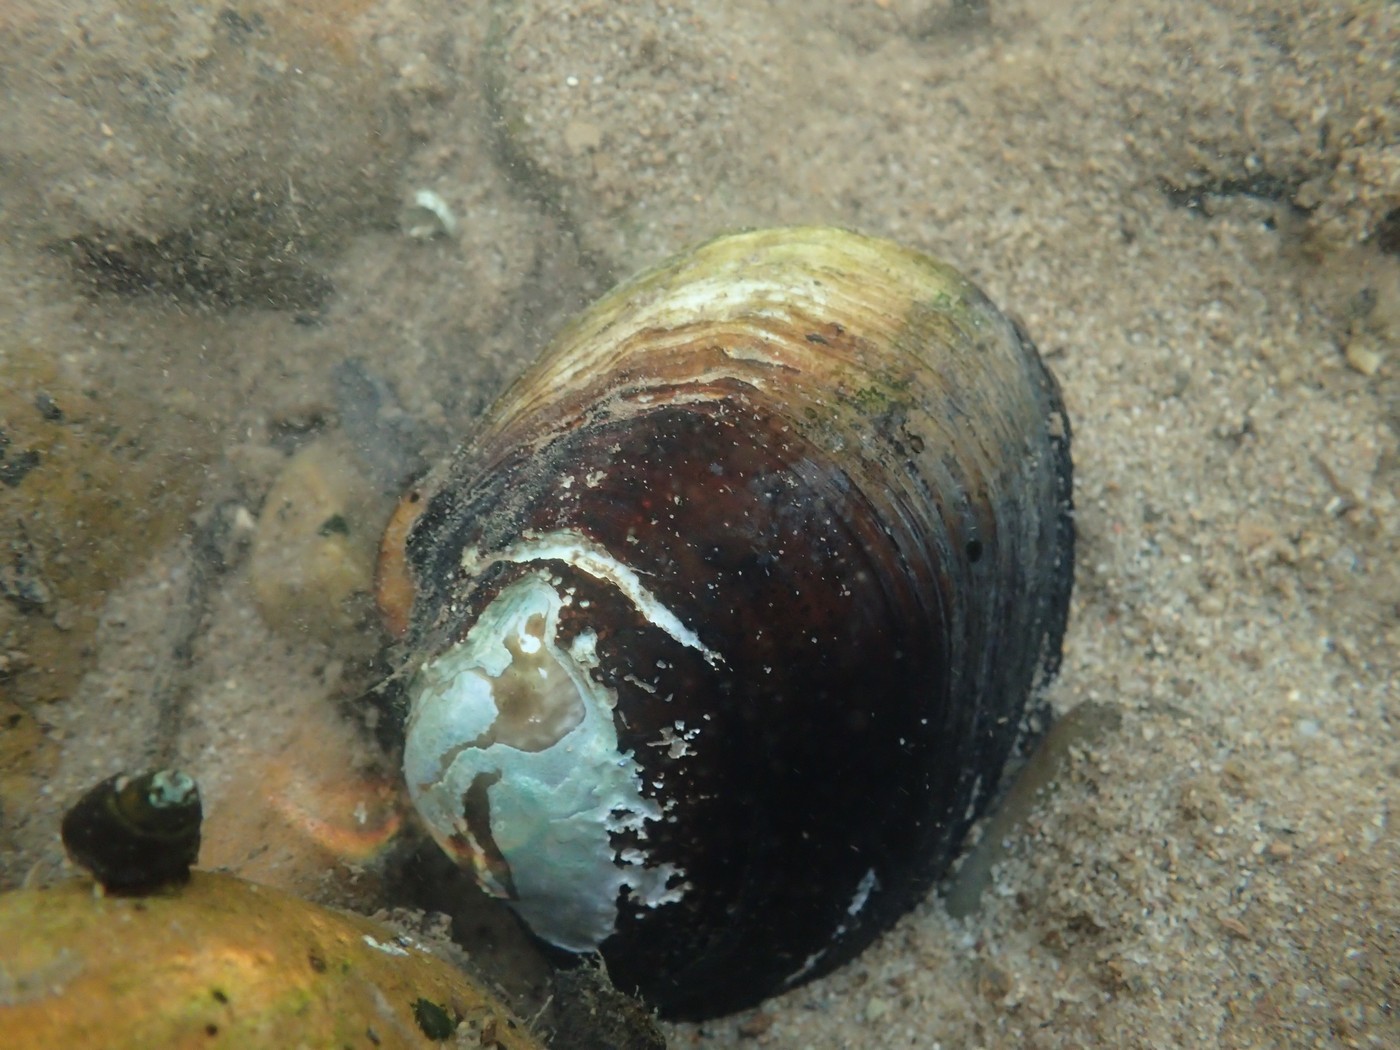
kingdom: Animalia
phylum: Mollusca
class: Bivalvia
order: Unionida
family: Unionidae
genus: Lampsilis
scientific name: Lampsilis cariosa
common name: Yellow lampmussel
